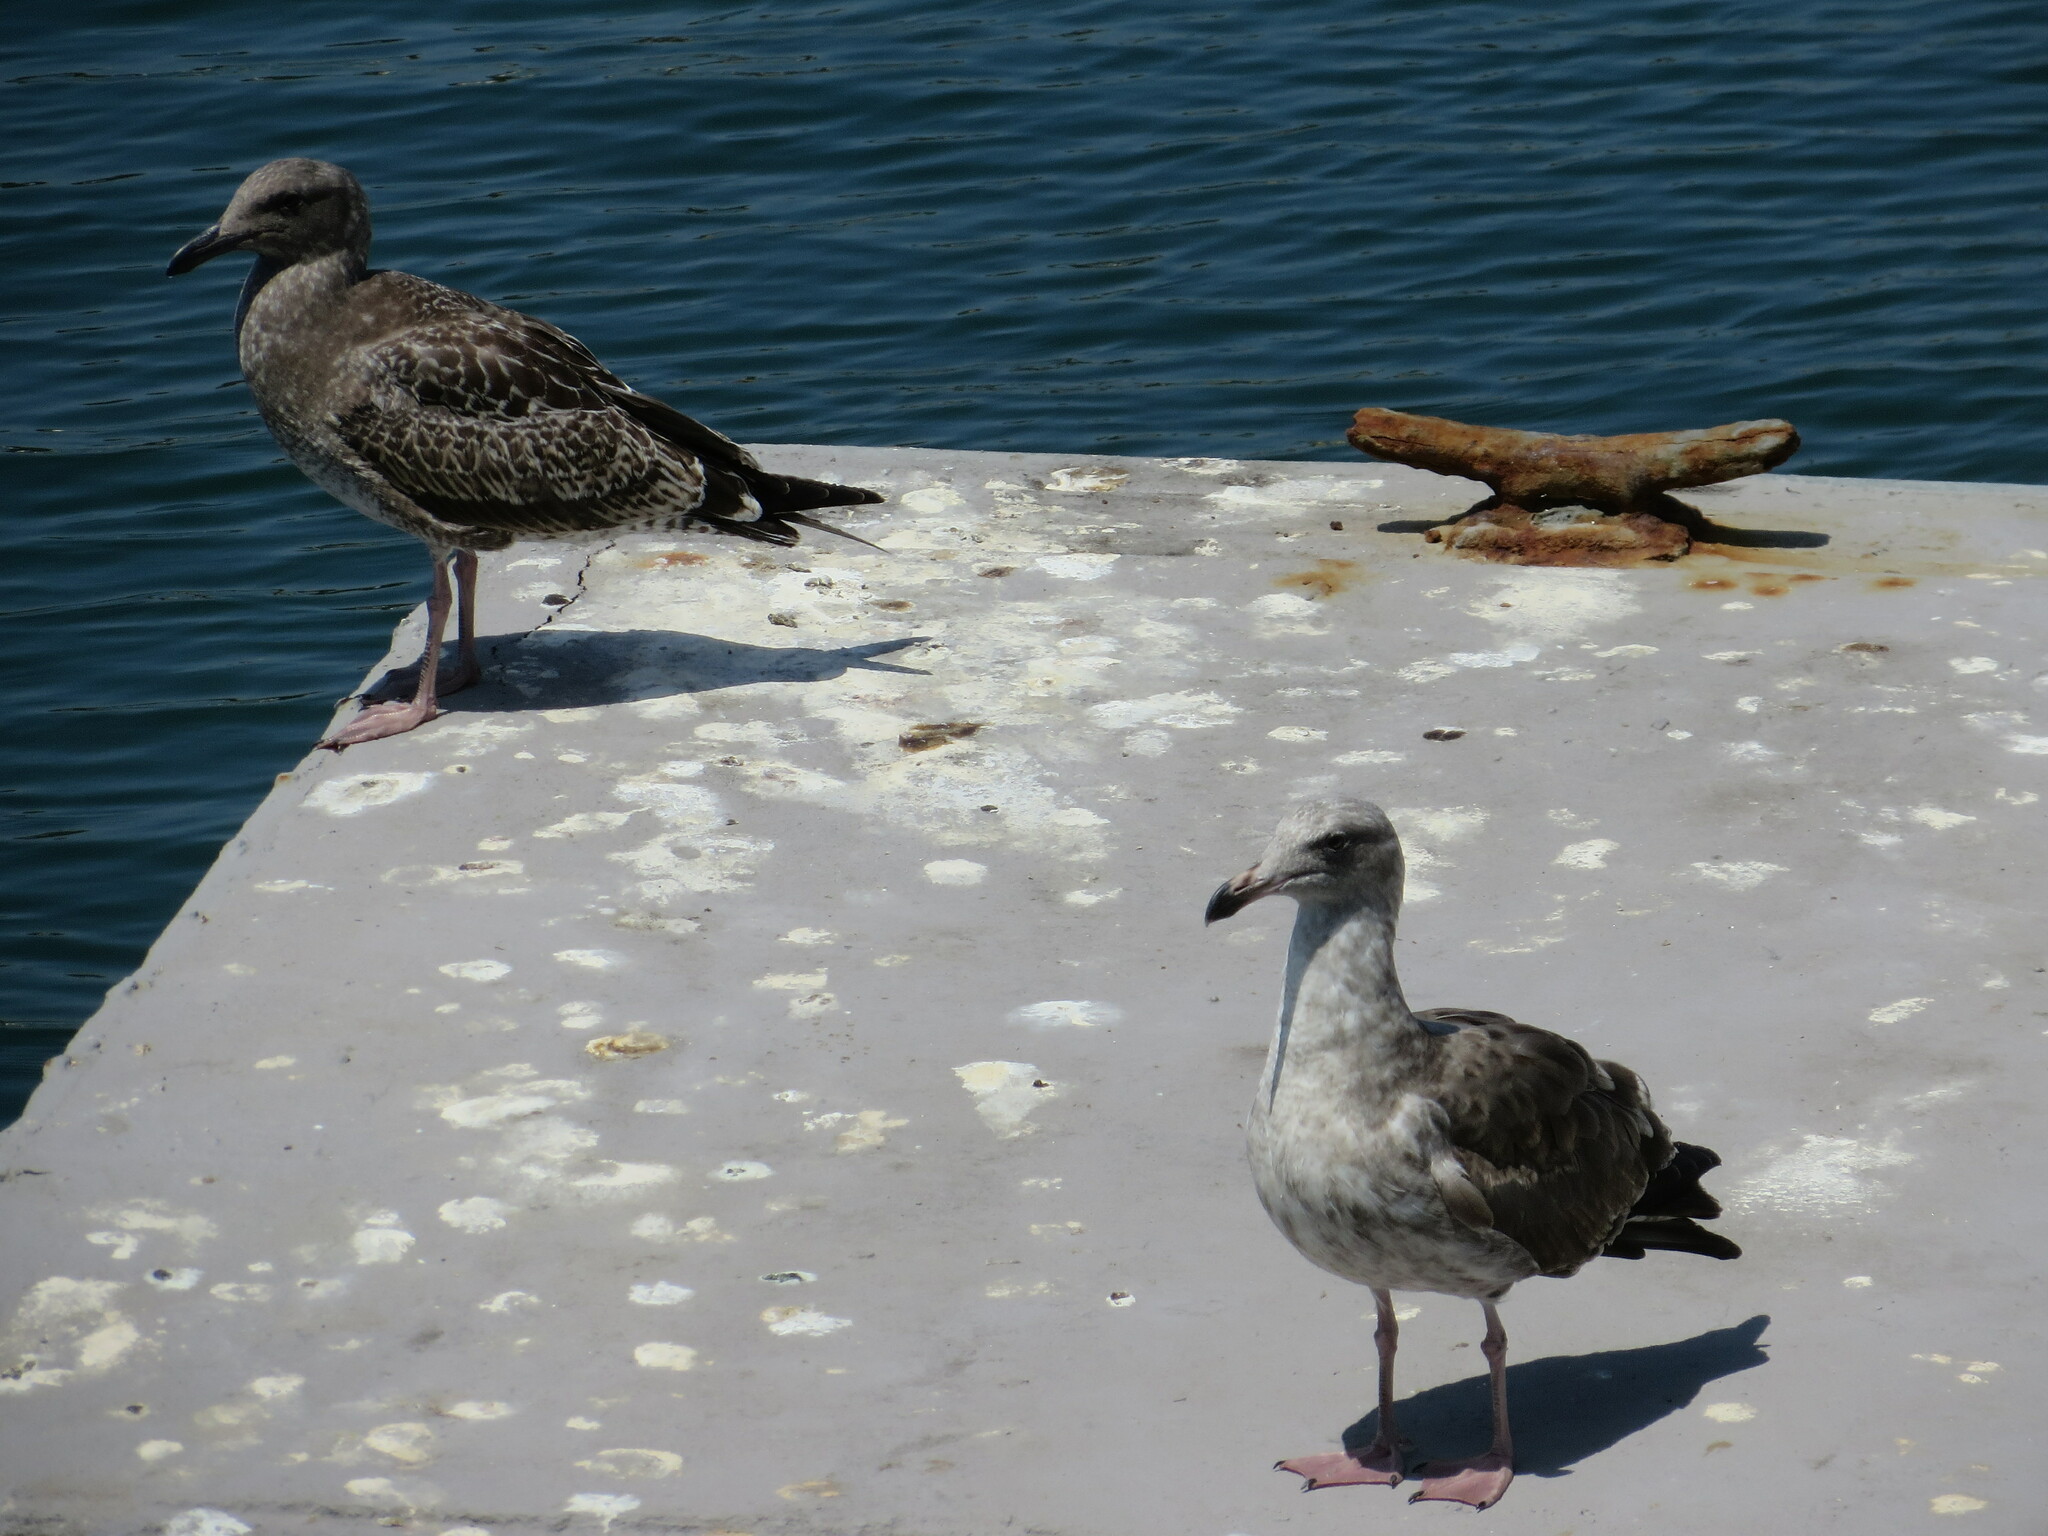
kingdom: Animalia
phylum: Chordata
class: Aves
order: Charadriiformes
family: Laridae
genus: Larus
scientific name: Larus occidentalis
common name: Western gull
